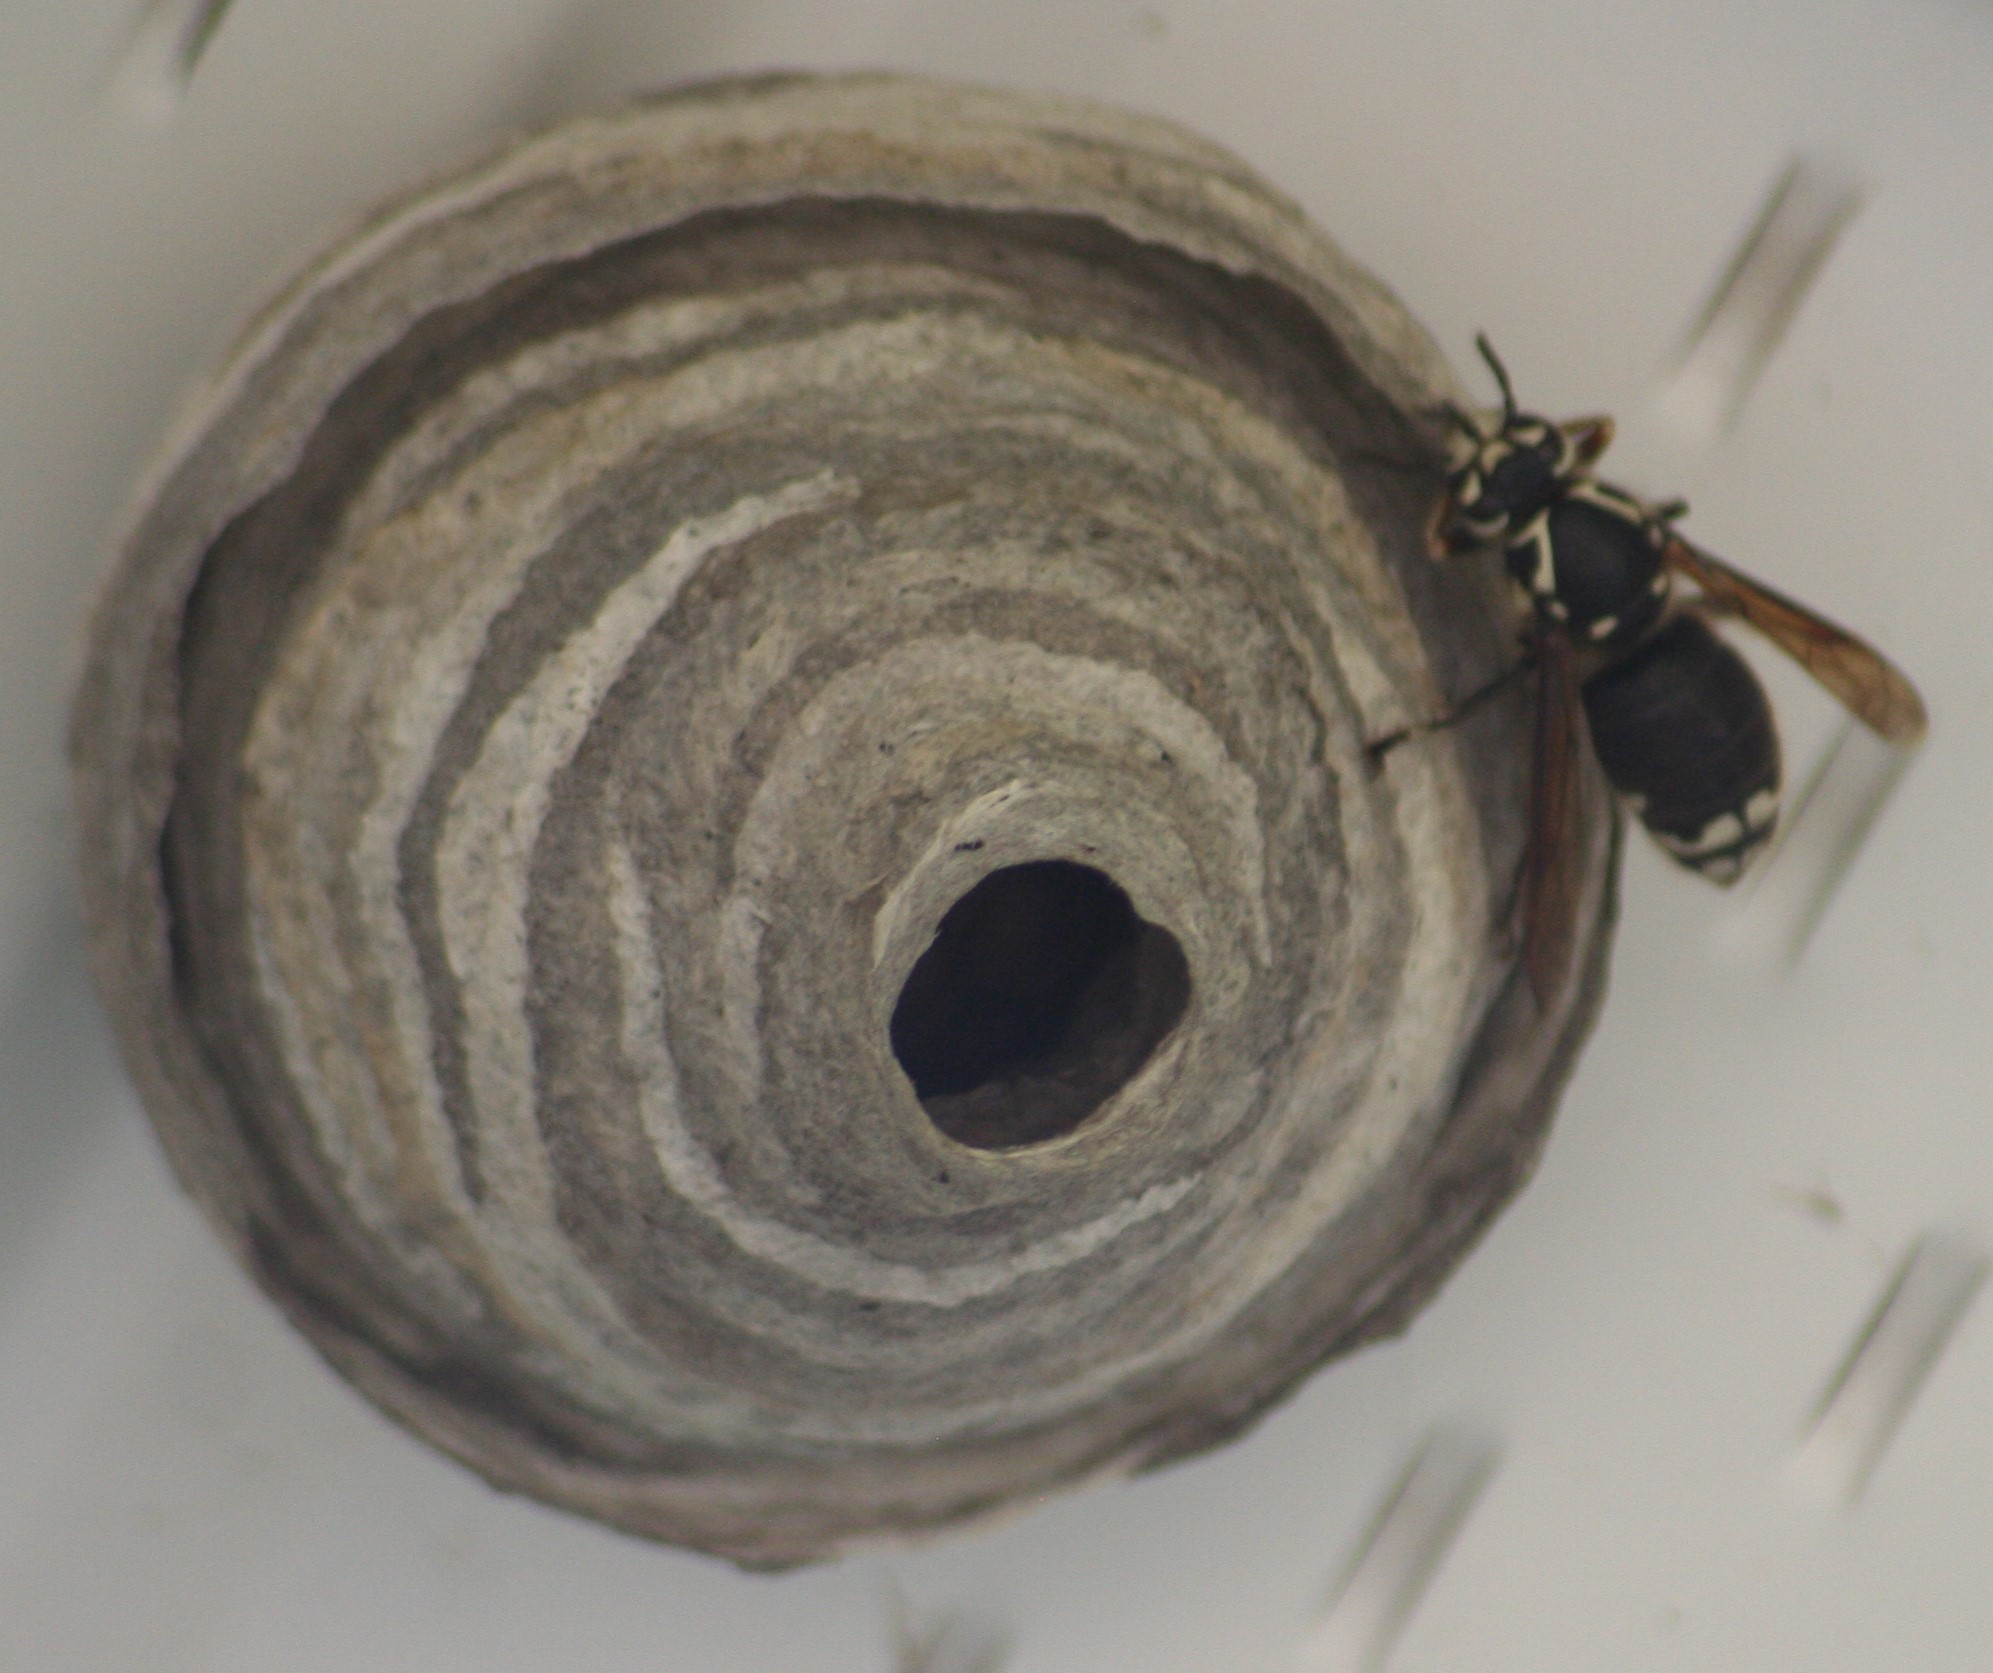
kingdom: Animalia
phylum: Arthropoda
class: Insecta
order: Hymenoptera
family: Vespidae
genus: Dolichovespula
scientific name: Dolichovespula maculata
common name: Bald-faced hornet
